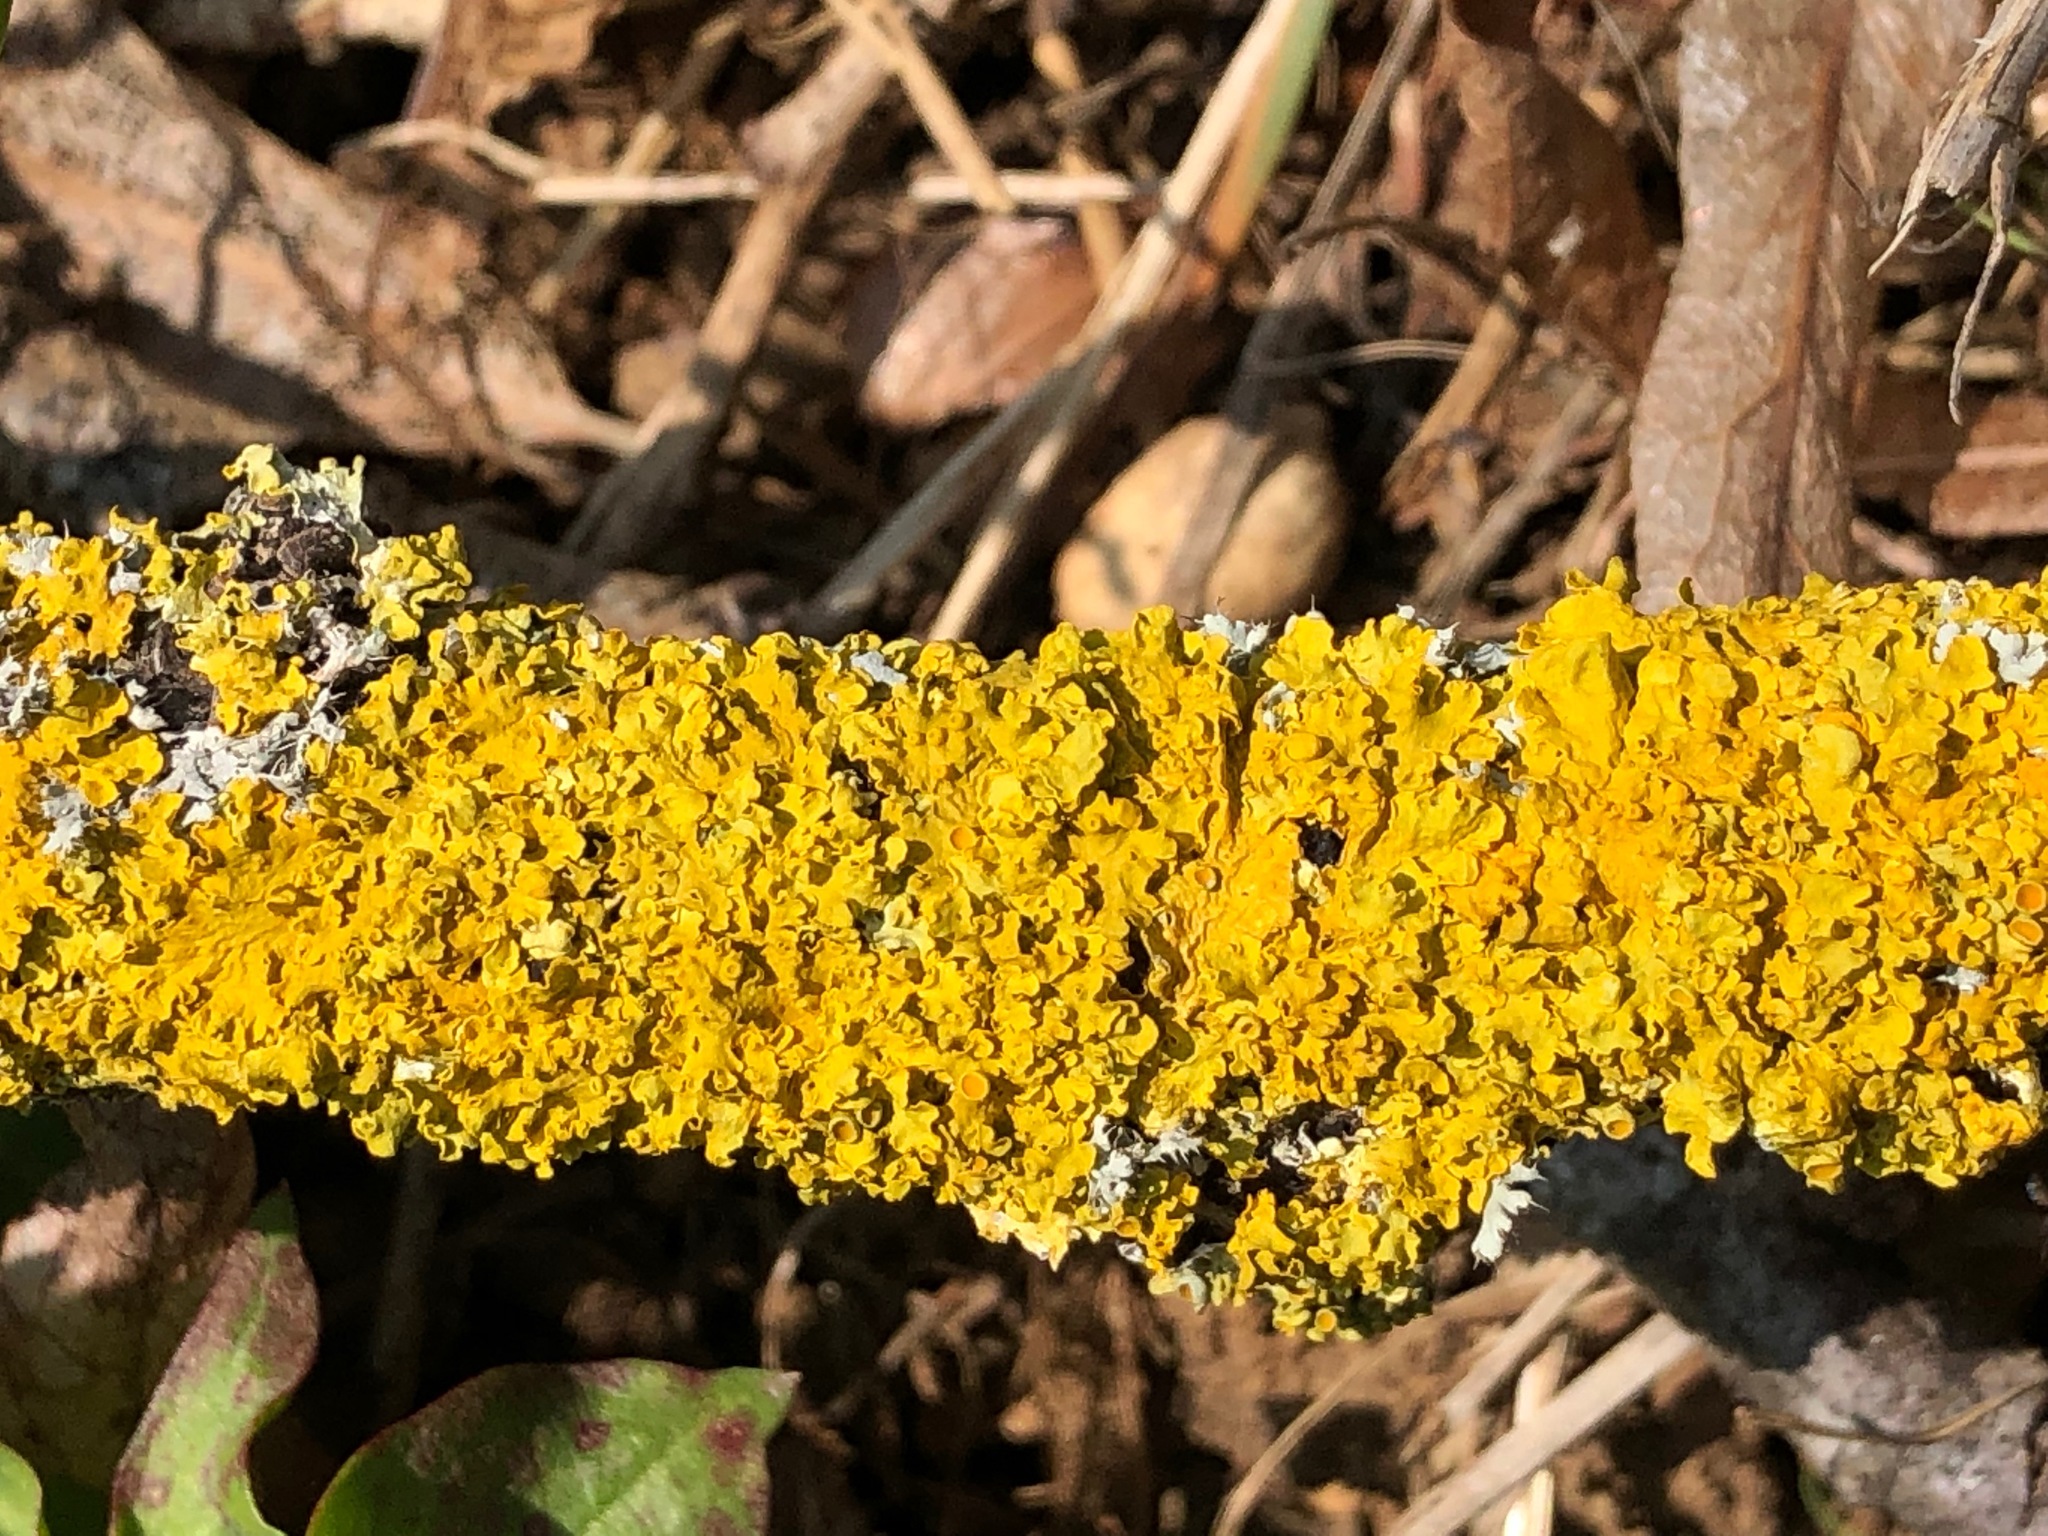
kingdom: Fungi
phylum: Ascomycota
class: Lecanoromycetes
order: Teloschistales
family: Teloschistaceae
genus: Xanthoria
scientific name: Xanthoria parietina
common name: Common orange lichen
